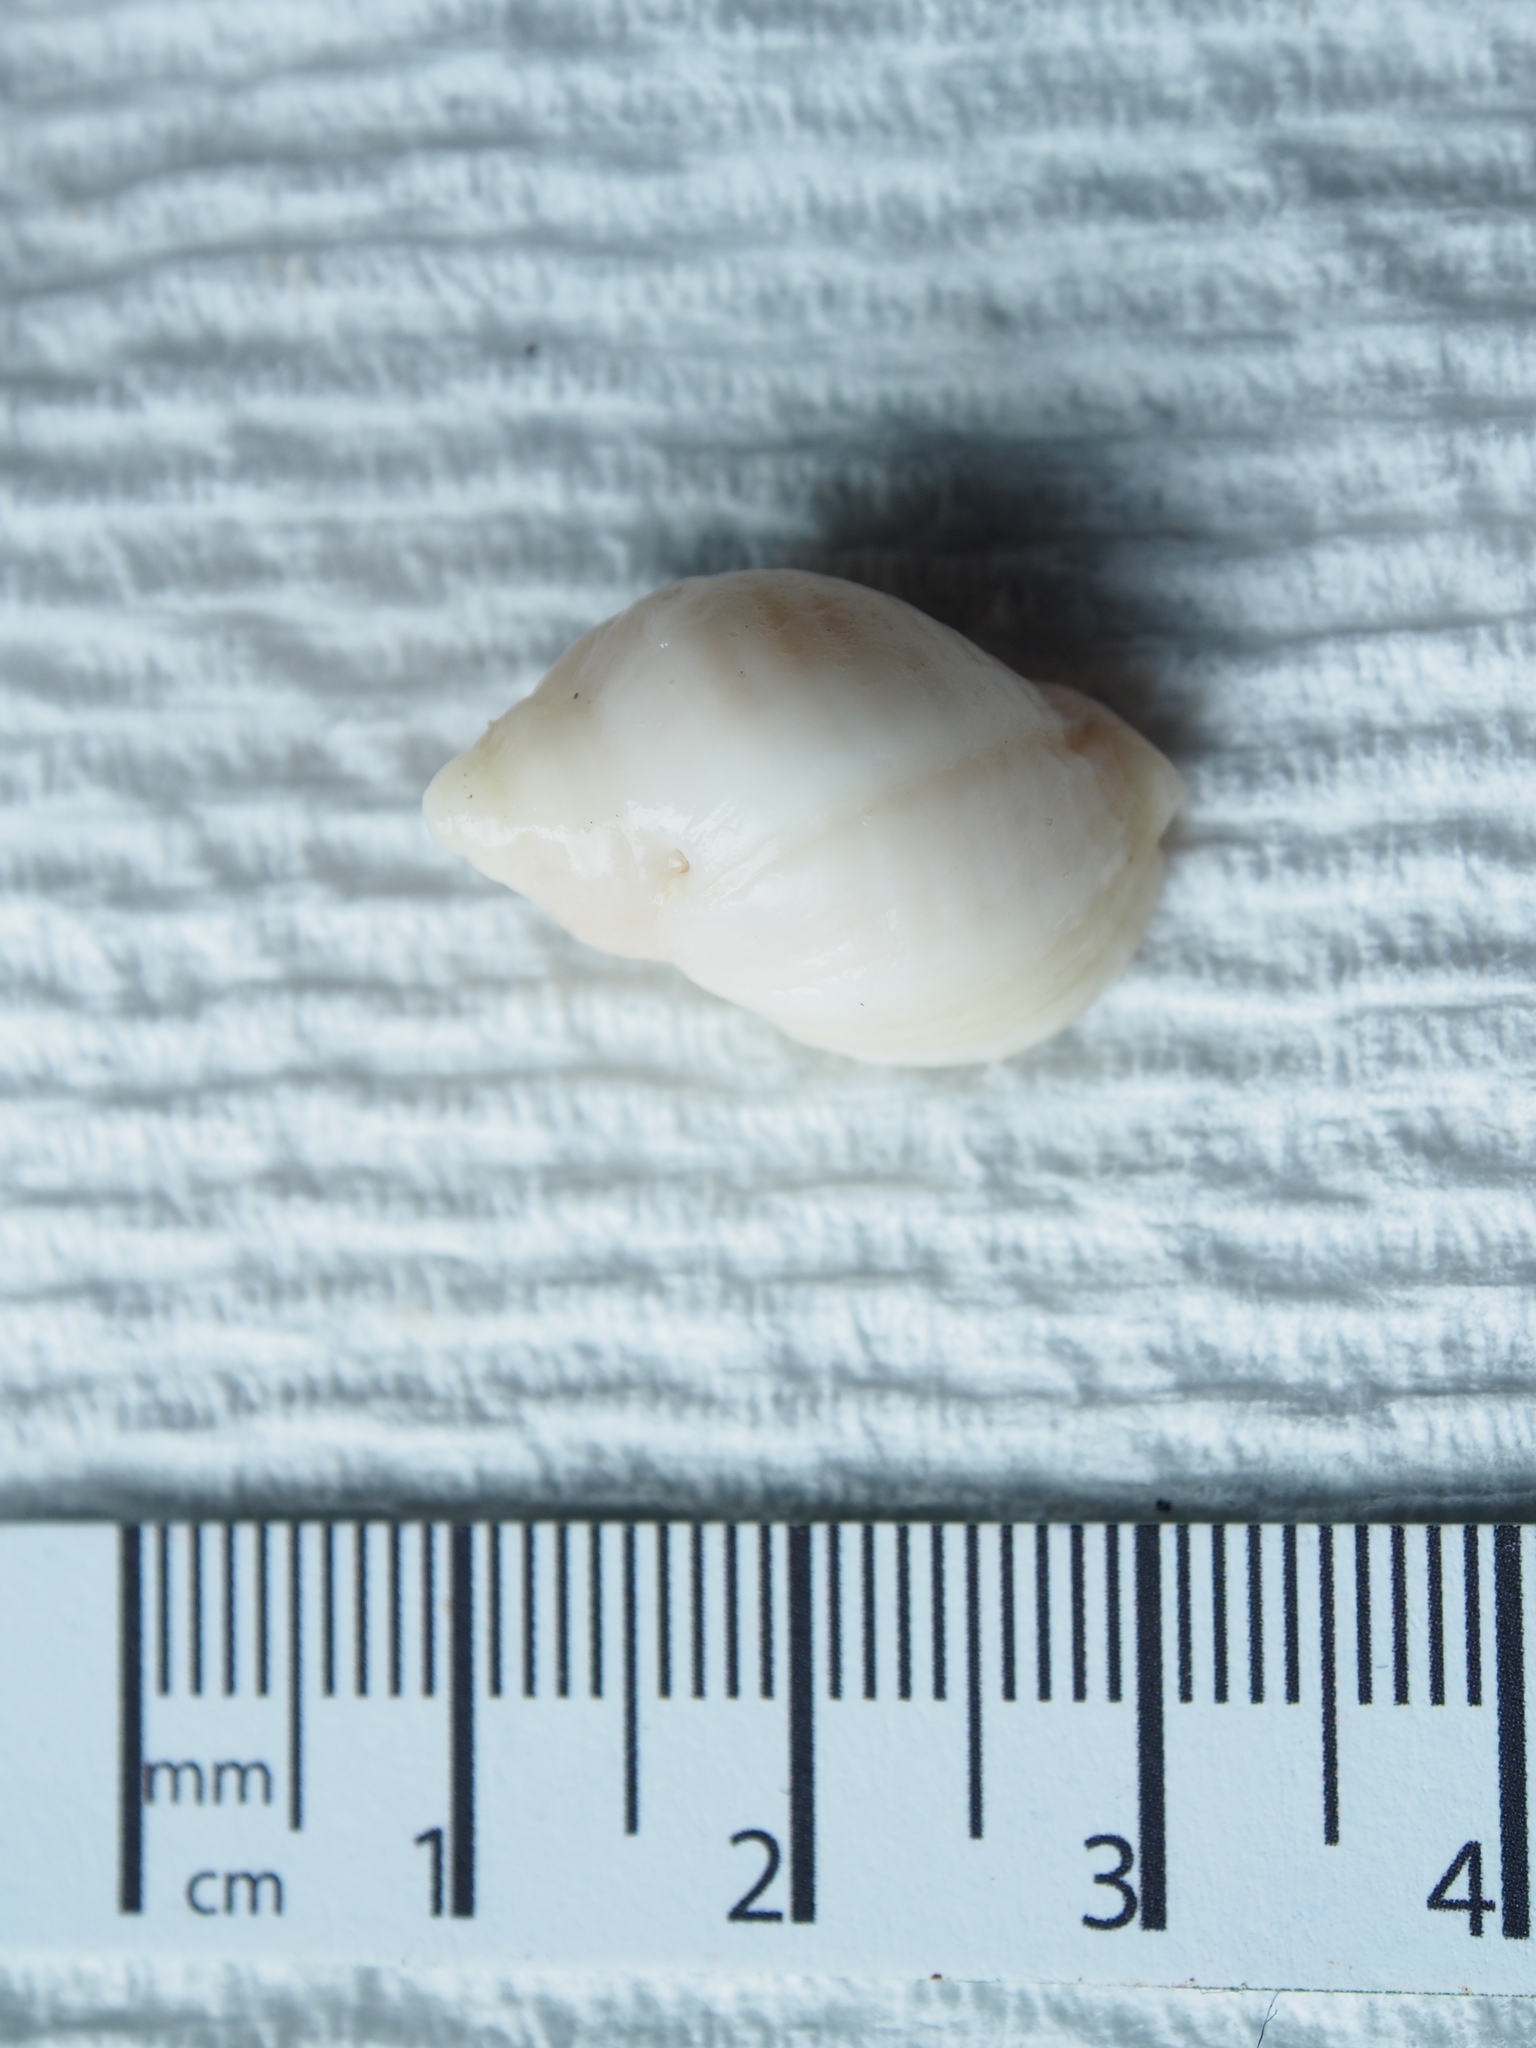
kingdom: Animalia
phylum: Mollusca
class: Gastropoda
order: Neogastropoda
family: Muricidae
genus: Nucella
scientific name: Nucella lapillus
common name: Dog whelk
